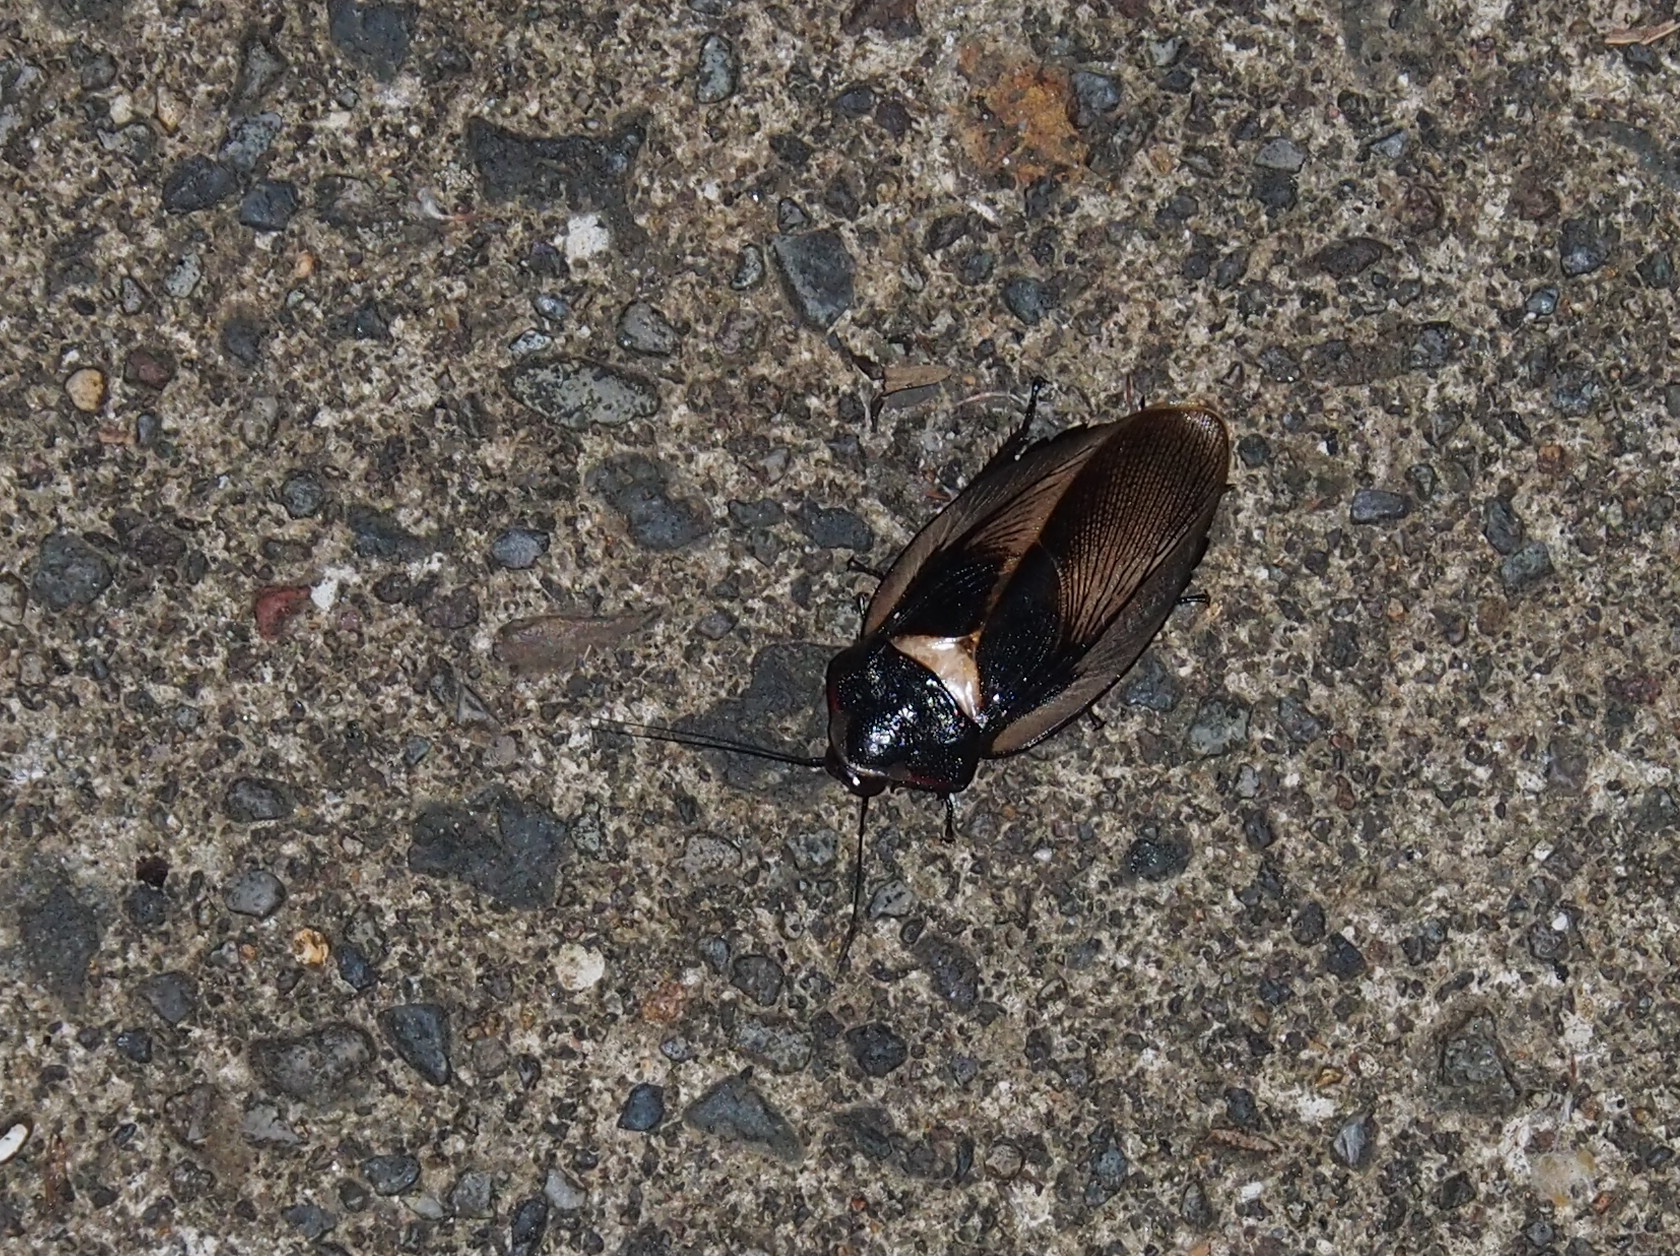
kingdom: Animalia
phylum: Arthropoda
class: Insecta
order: Blattodea
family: Blaberidae
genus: Phortioeca
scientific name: Phortioeca phoraspoides
